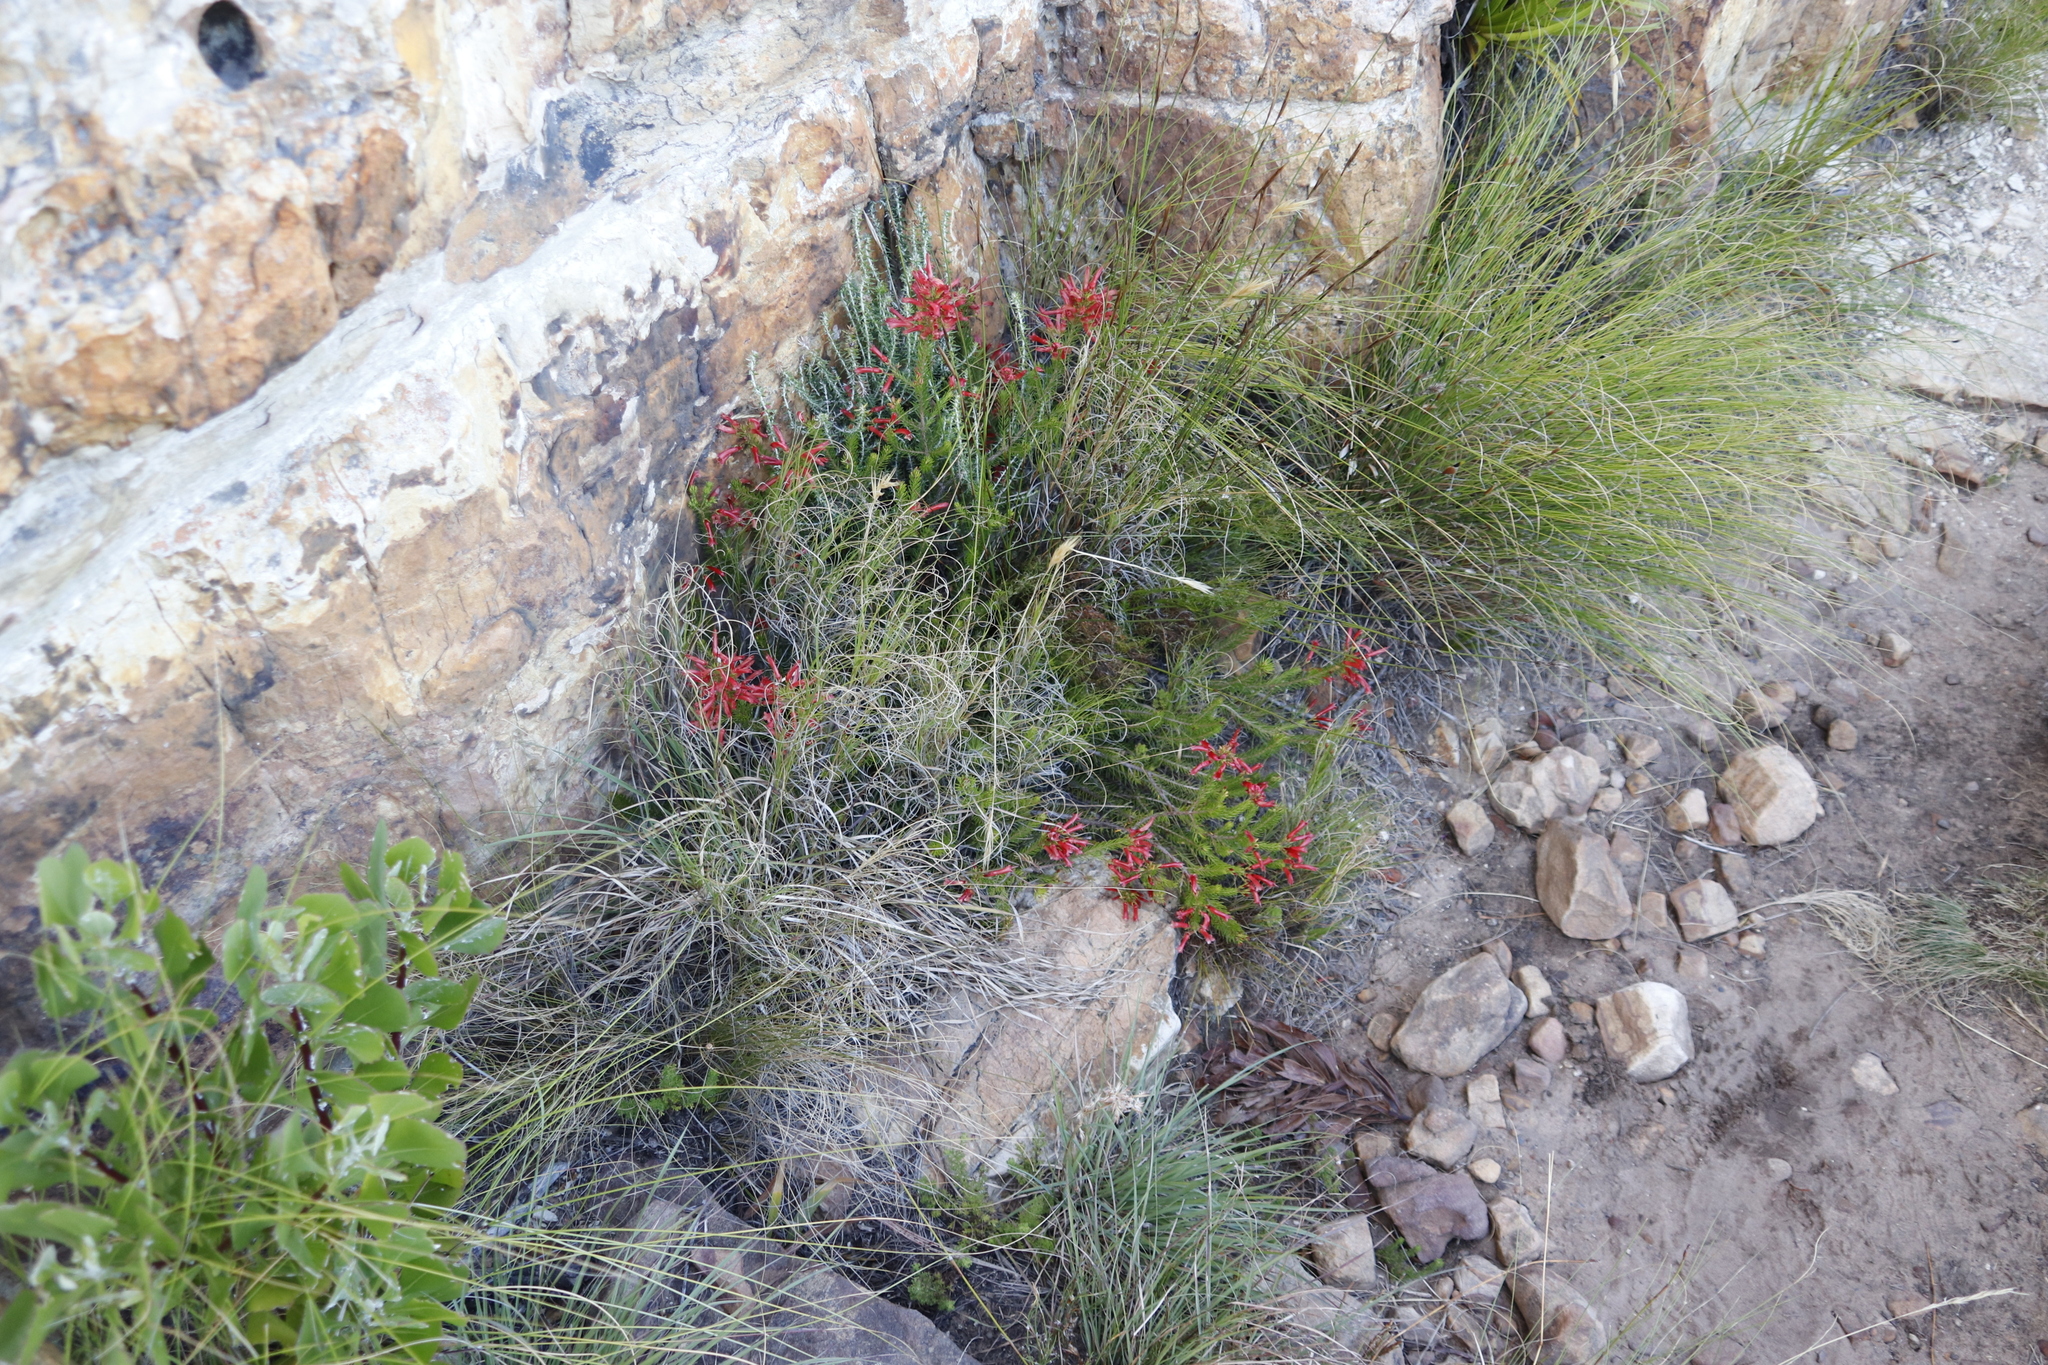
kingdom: Plantae
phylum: Tracheophyta
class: Magnoliopsida
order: Ericales
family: Ericaceae
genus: Erica
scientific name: Erica nevillei
